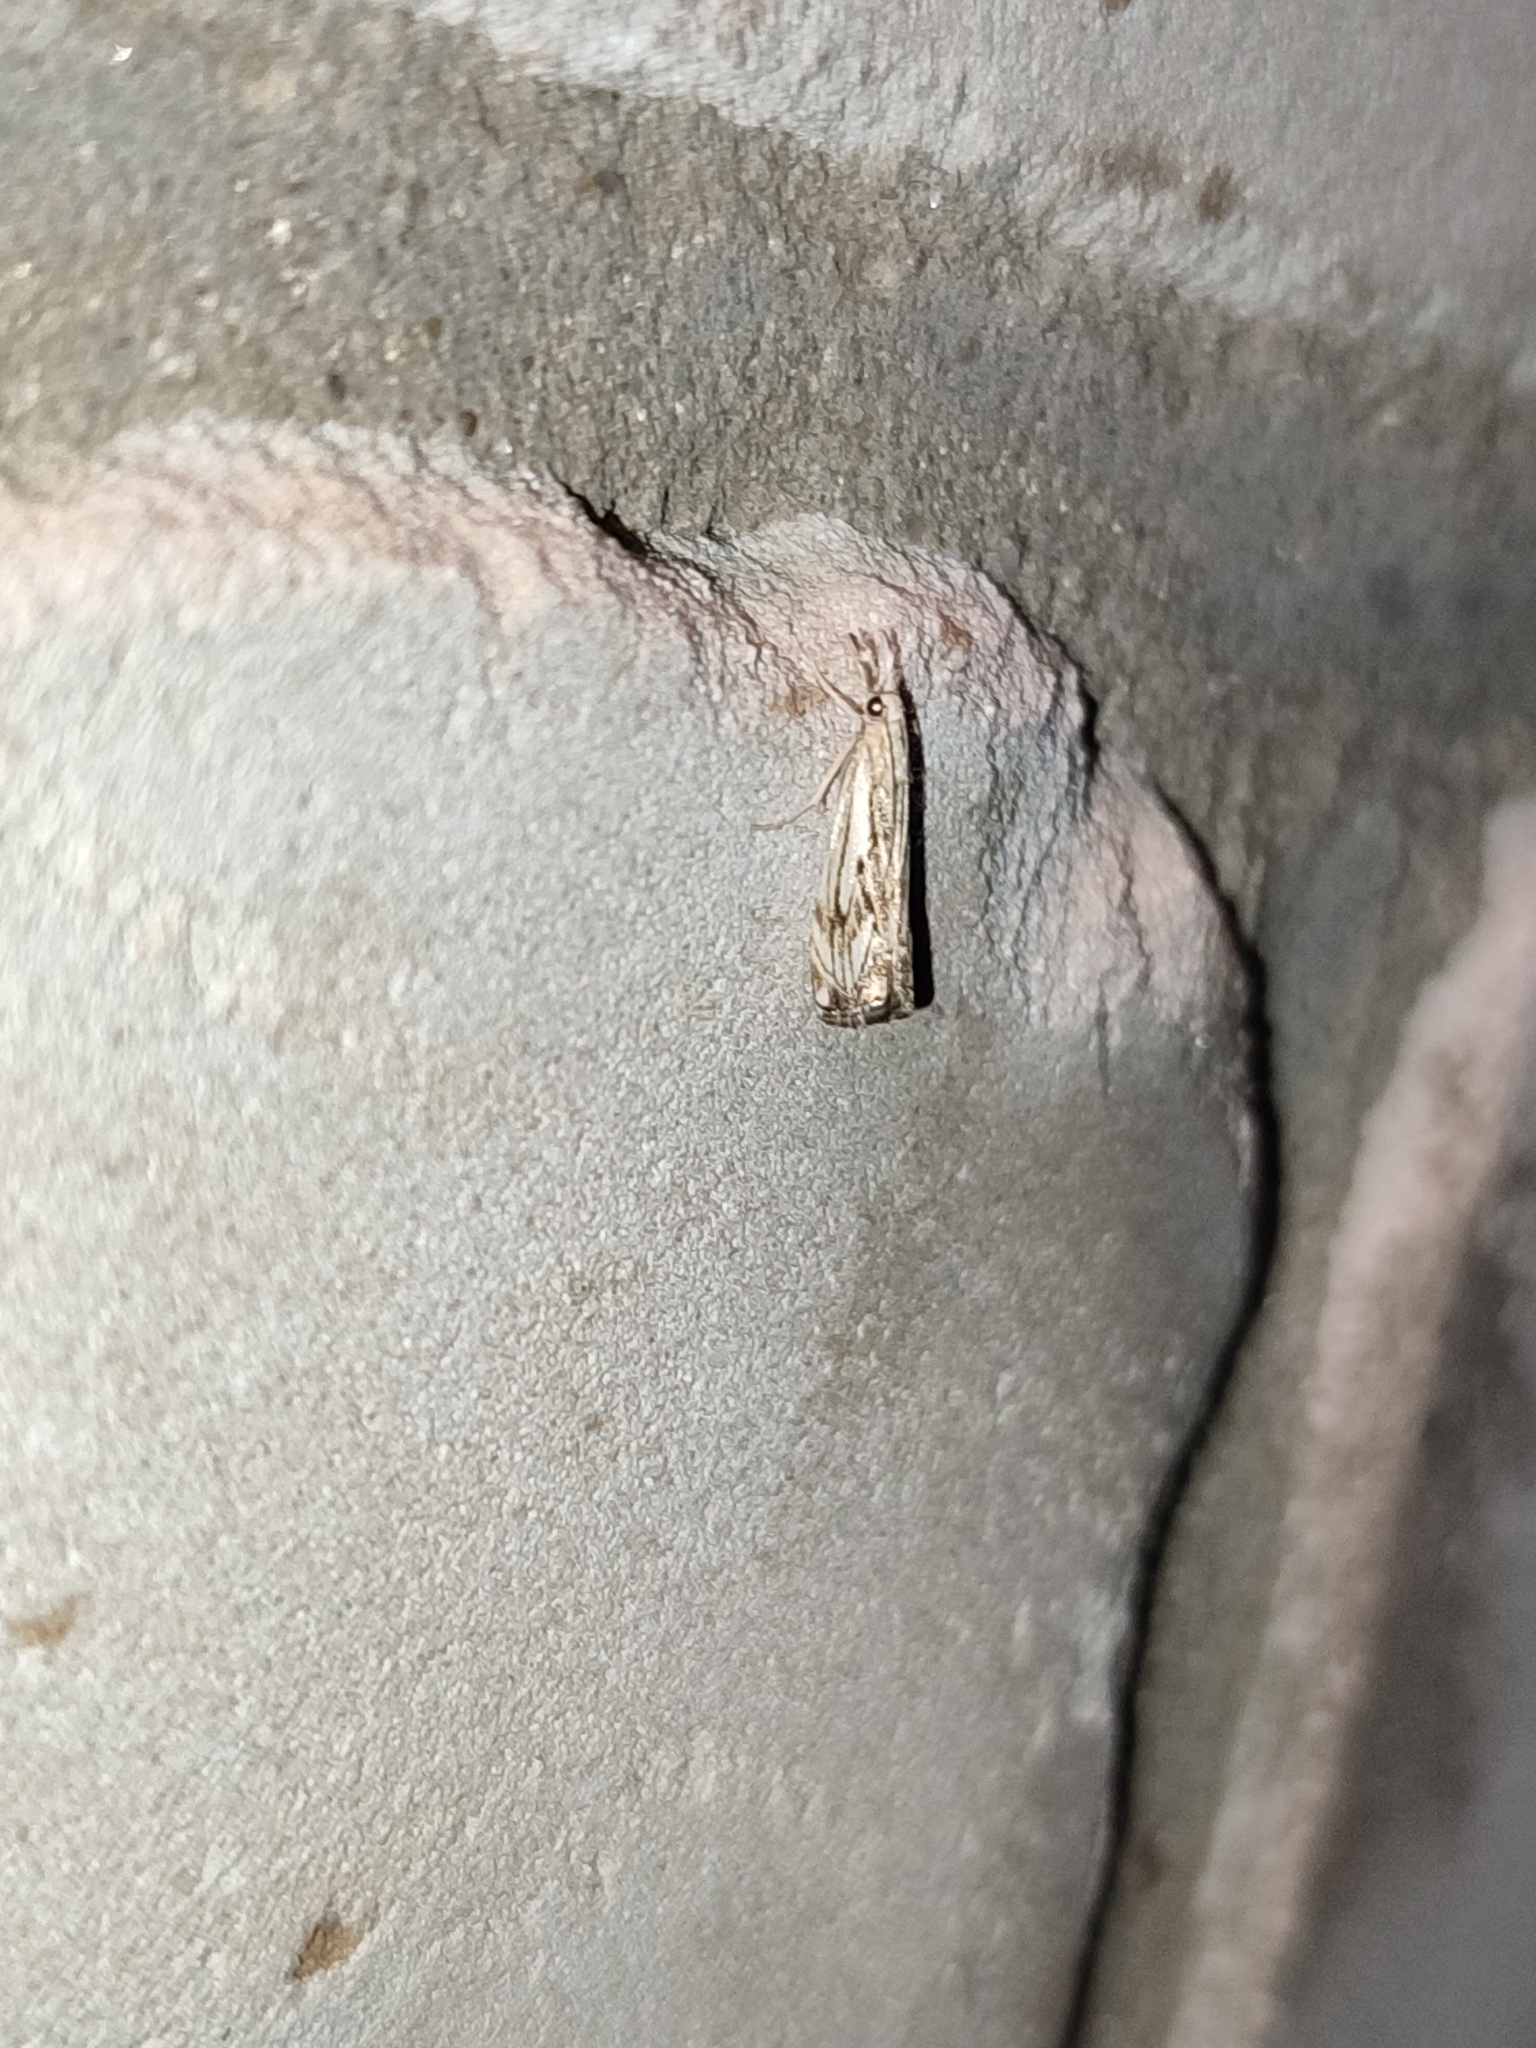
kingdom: Animalia
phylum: Arthropoda
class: Insecta
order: Lepidoptera
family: Crambidae
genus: Catoptria
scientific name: Catoptria falsella
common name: Chequered grass-veneer
